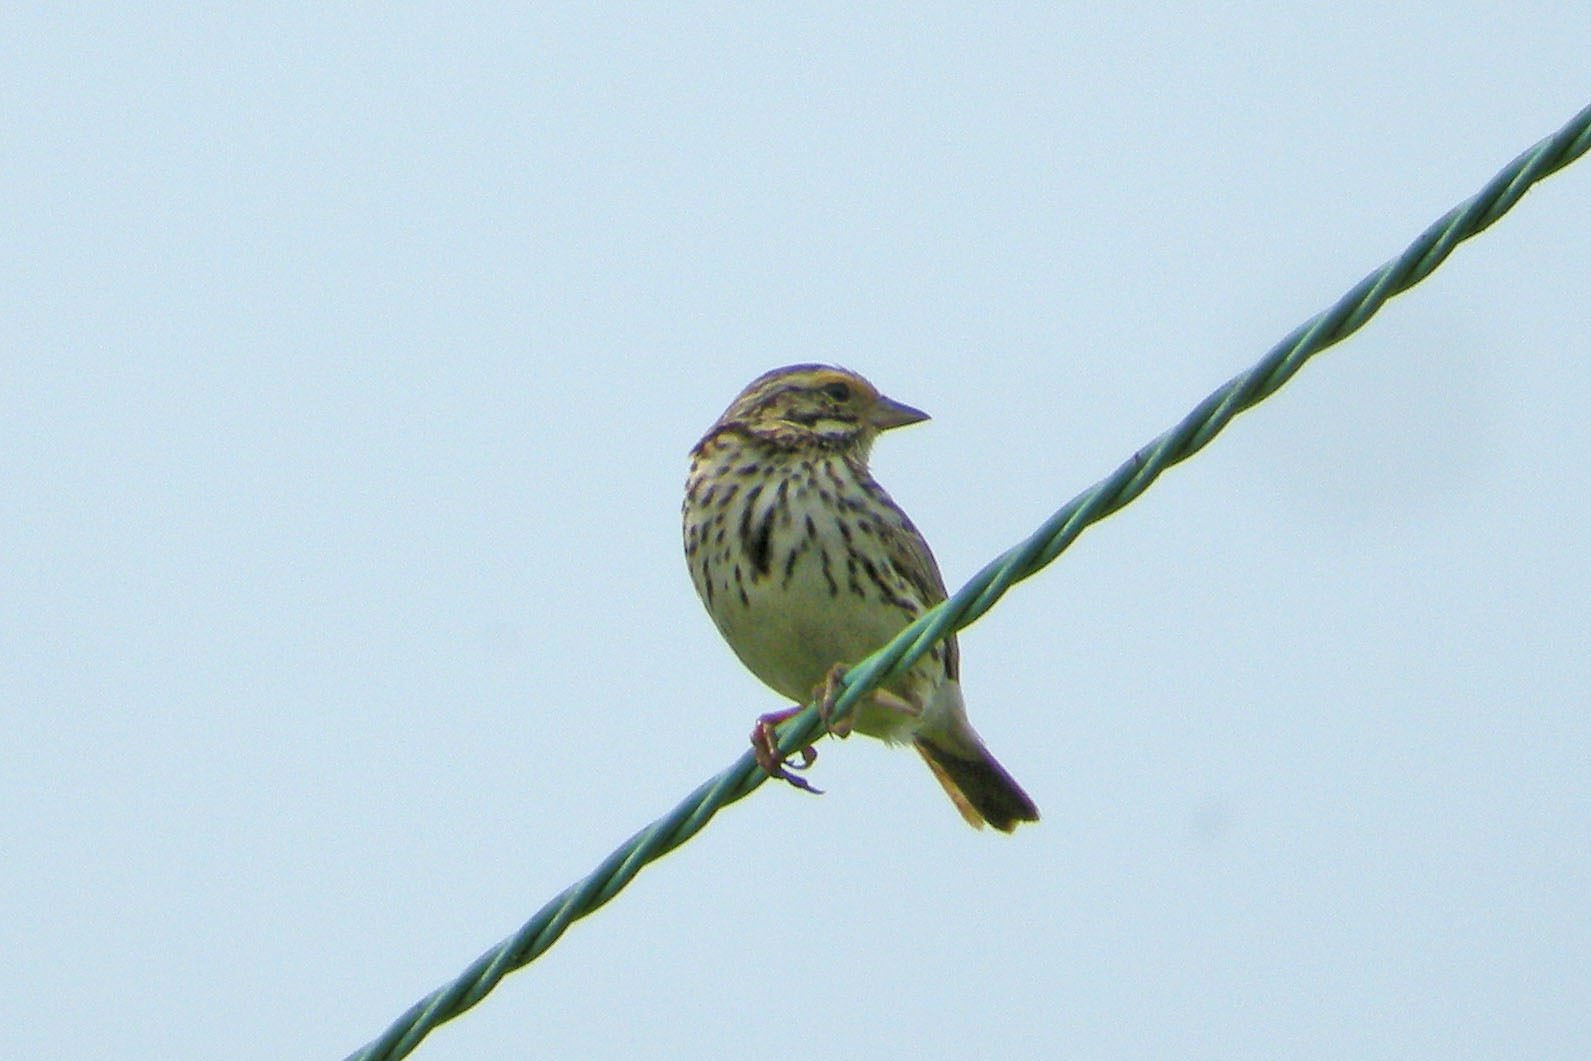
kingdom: Animalia
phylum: Chordata
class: Aves
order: Passeriformes
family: Passerellidae
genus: Passerculus
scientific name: Passerculus sandwichensis
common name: Savannah sparrow
